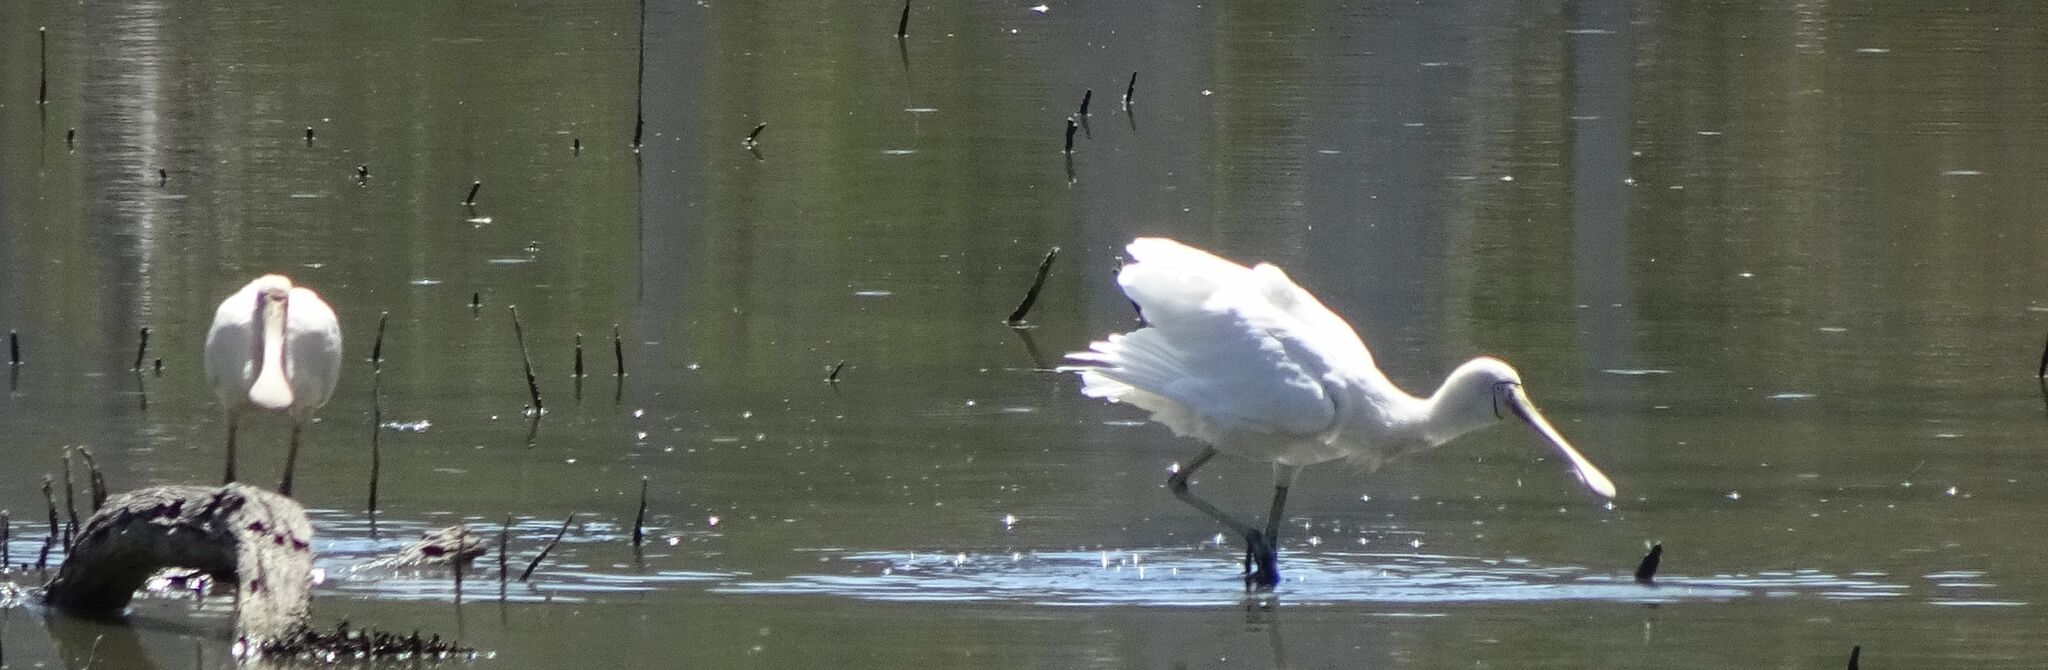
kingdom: Animalia
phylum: Chordata
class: Aves
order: Pelecaniformes
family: Threskiornithidae
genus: Platalea
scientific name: Platalea flavipes
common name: Yellow-billed spoonbill
